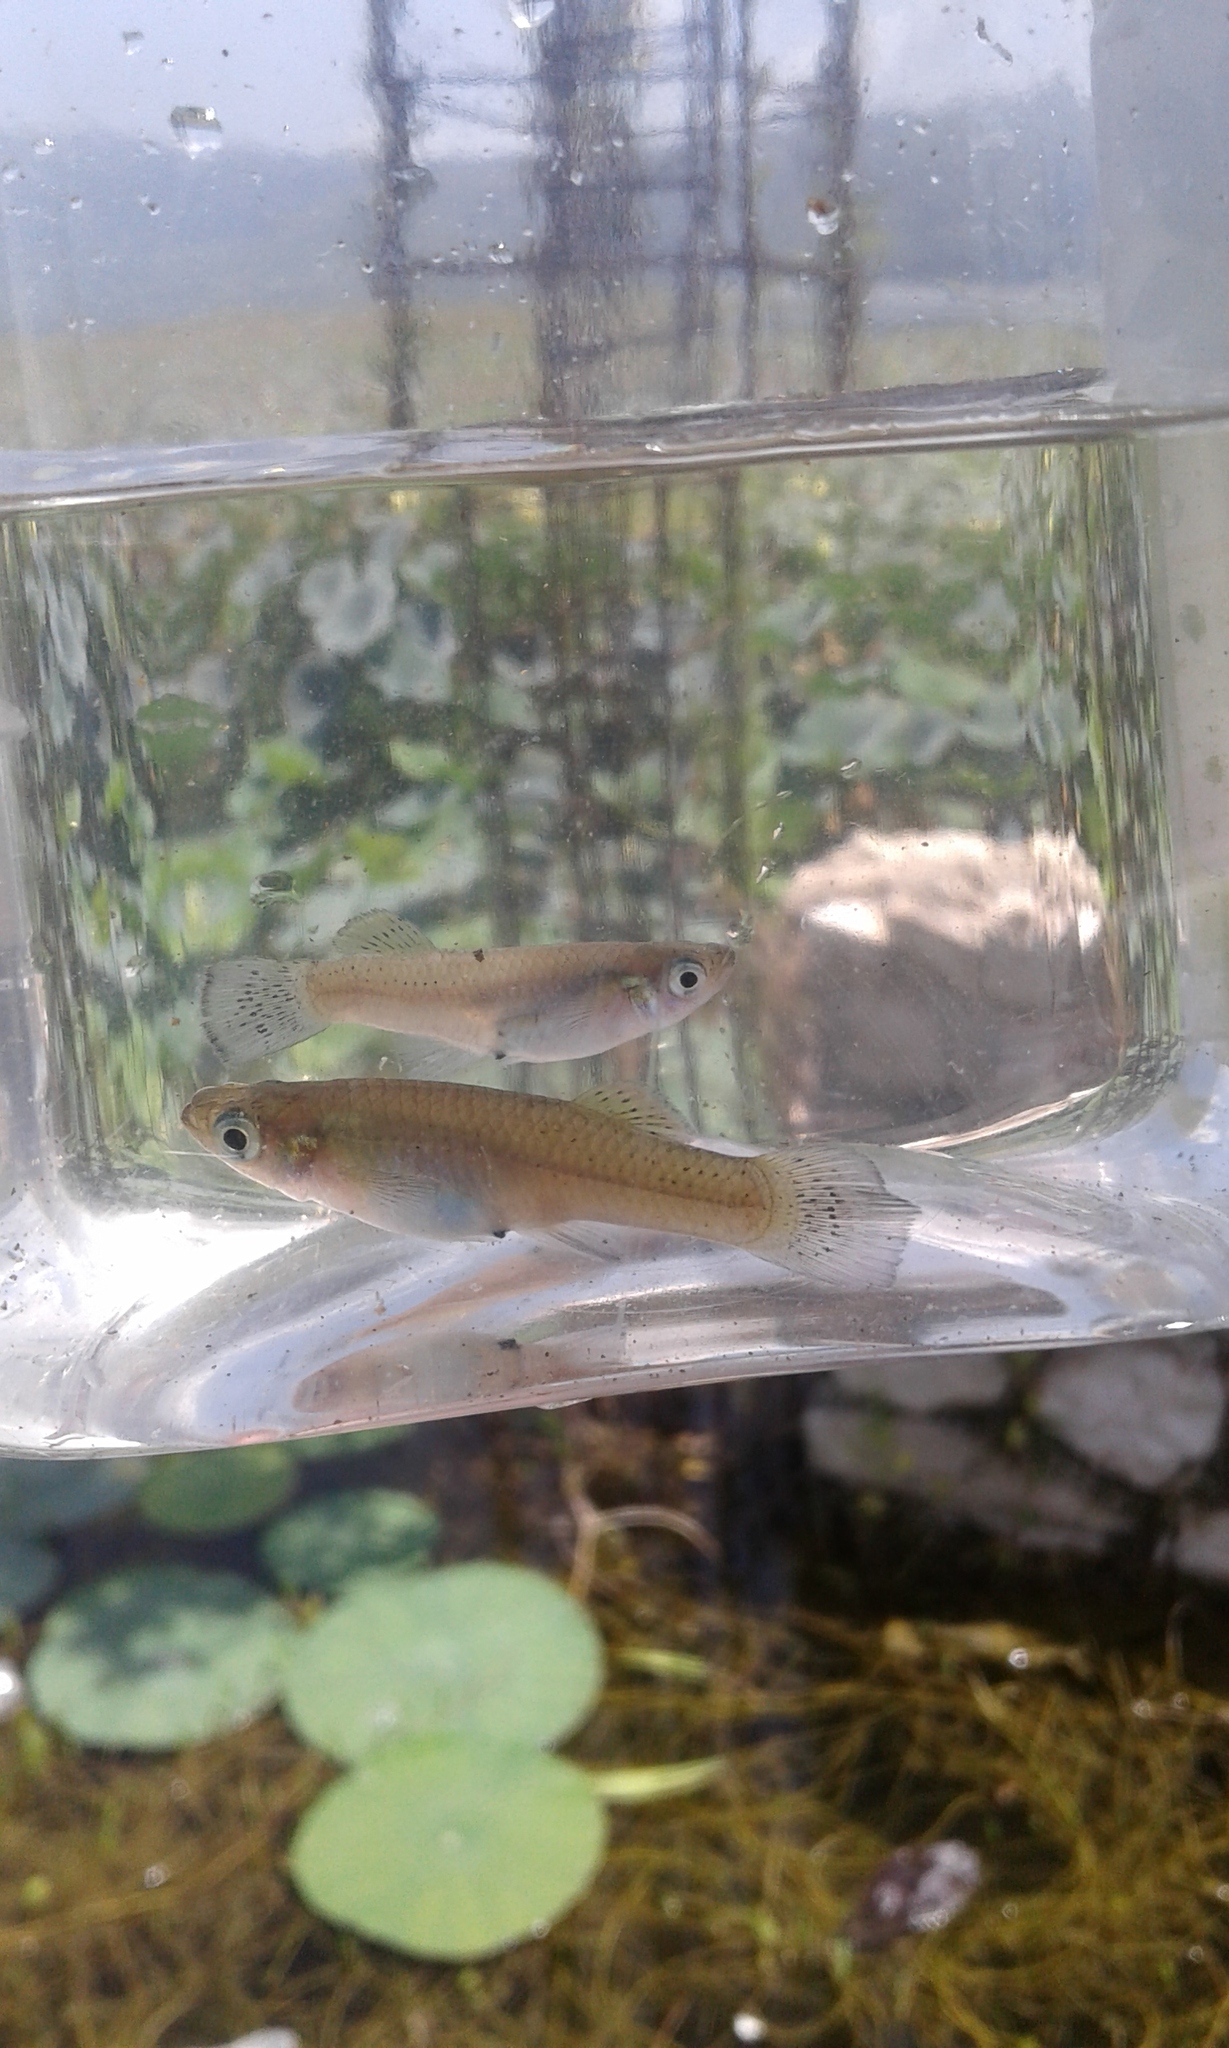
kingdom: Animalia
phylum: Chordata
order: Cyprinodontiformes
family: Poeciliidae
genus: Gambusia
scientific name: Gambusia beebei
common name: Miragoane gambusia
